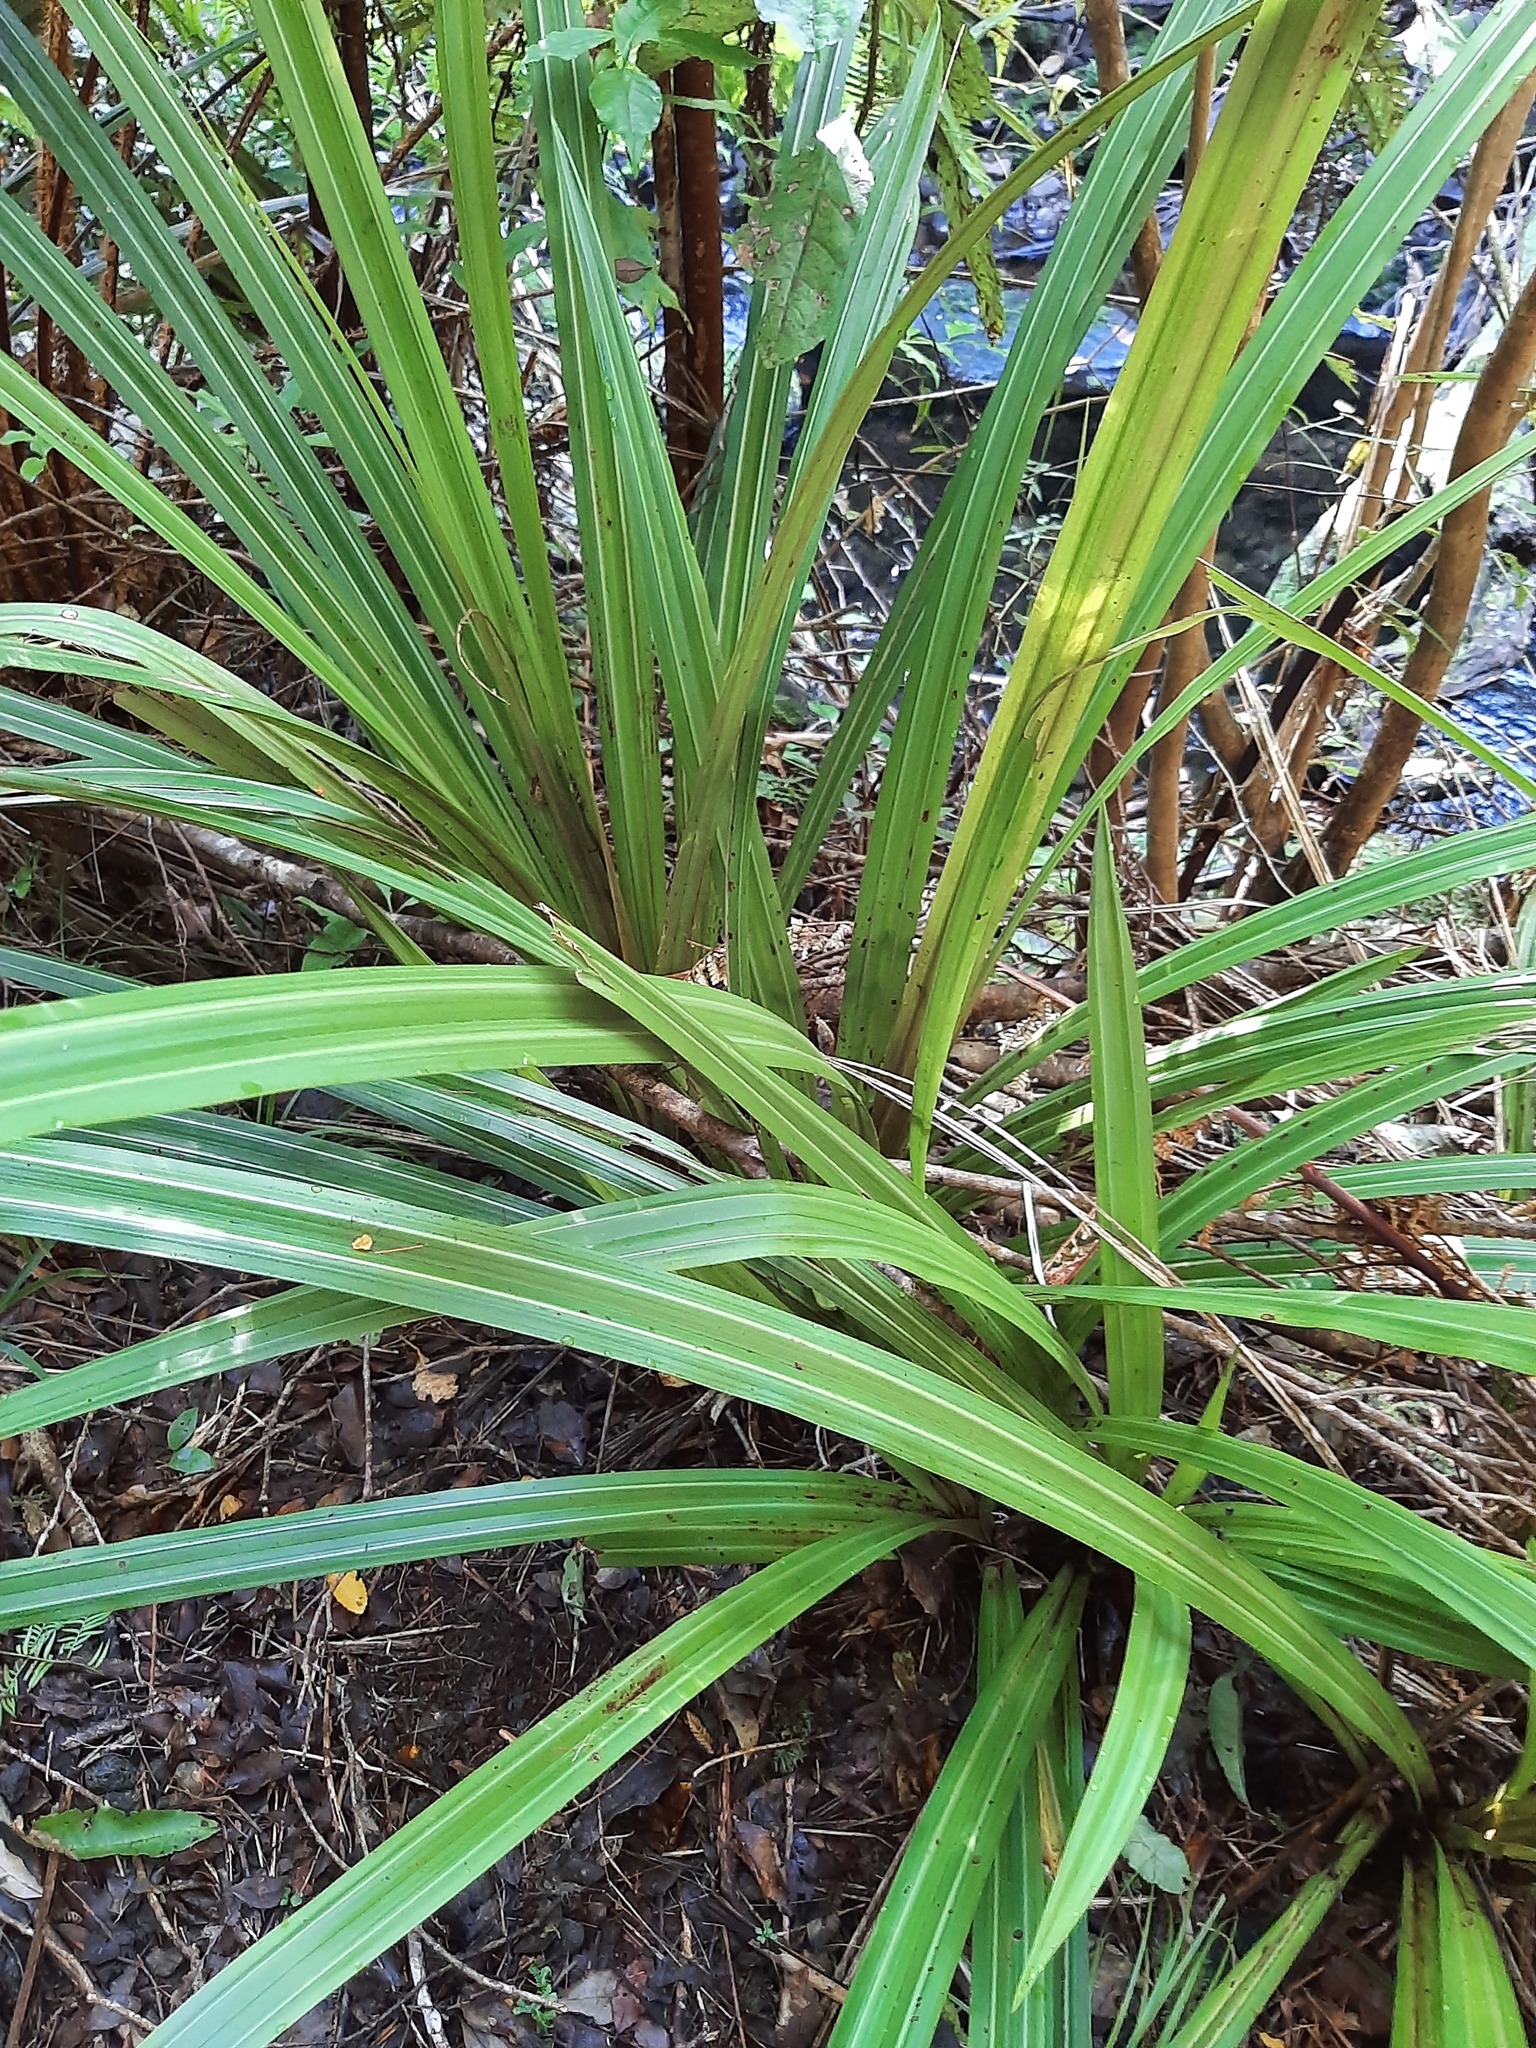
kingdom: Plantae
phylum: Tracheophyta
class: Liliopsida
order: Asparagales
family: Asteliaceae
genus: Astelia
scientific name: Astelia fragrans
